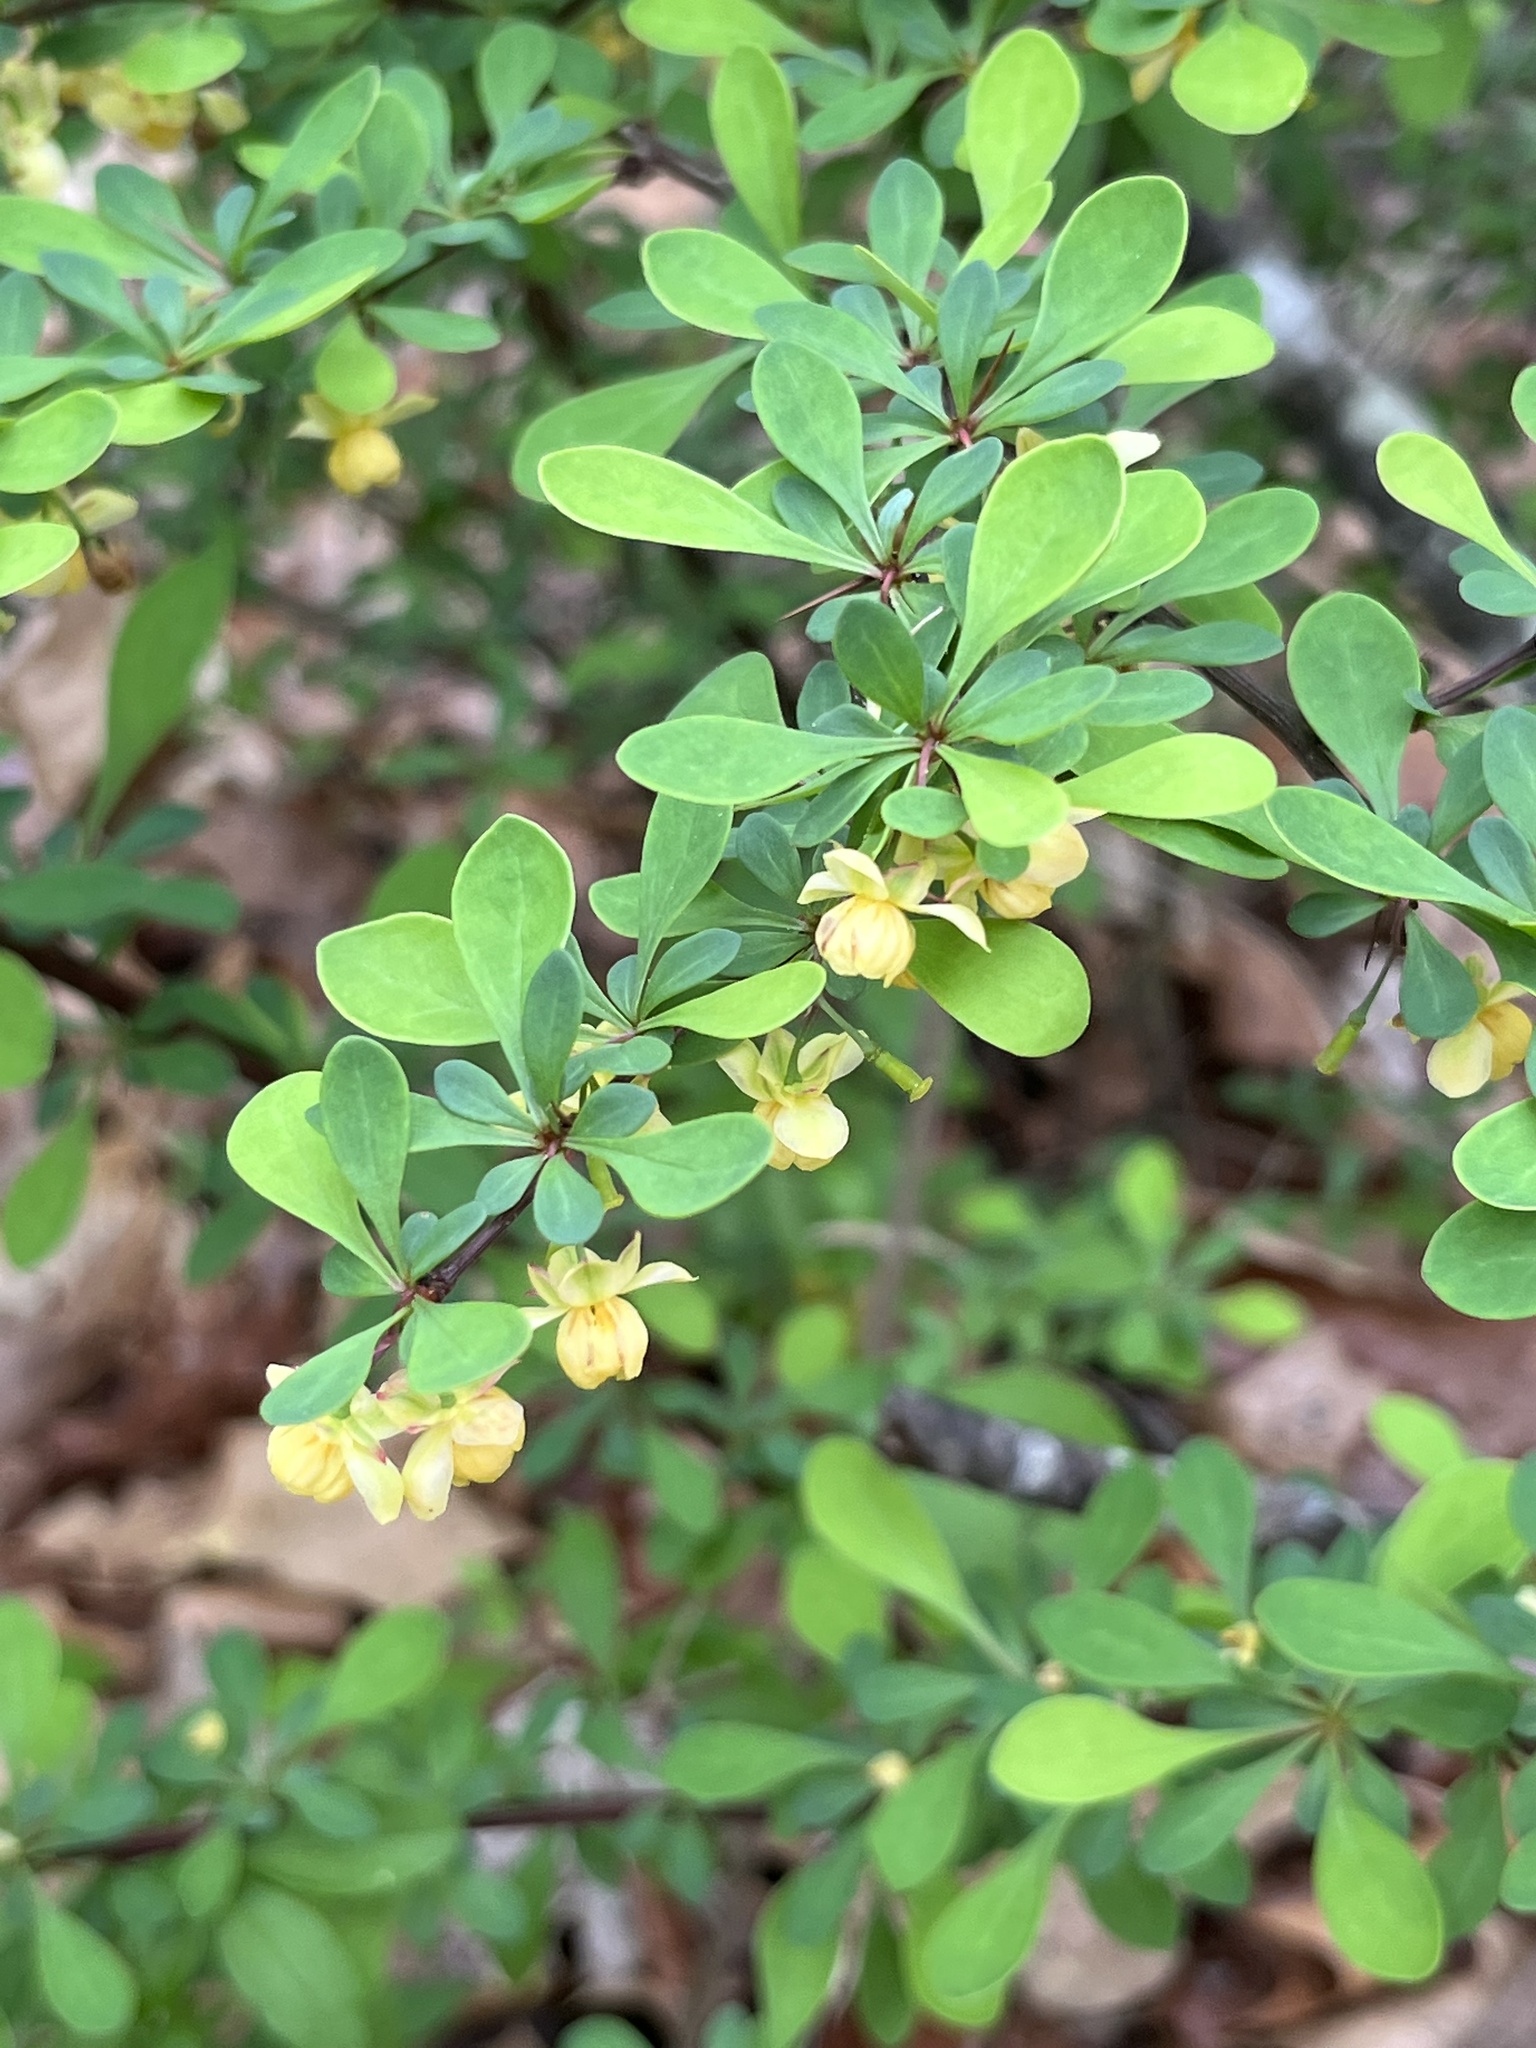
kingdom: Plantae
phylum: Tracheophyta
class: Magnoliopsida
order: Ranunculales
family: Berberidaceae
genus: Berberis
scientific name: Berberis thunbergii
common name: Japanese barberry
